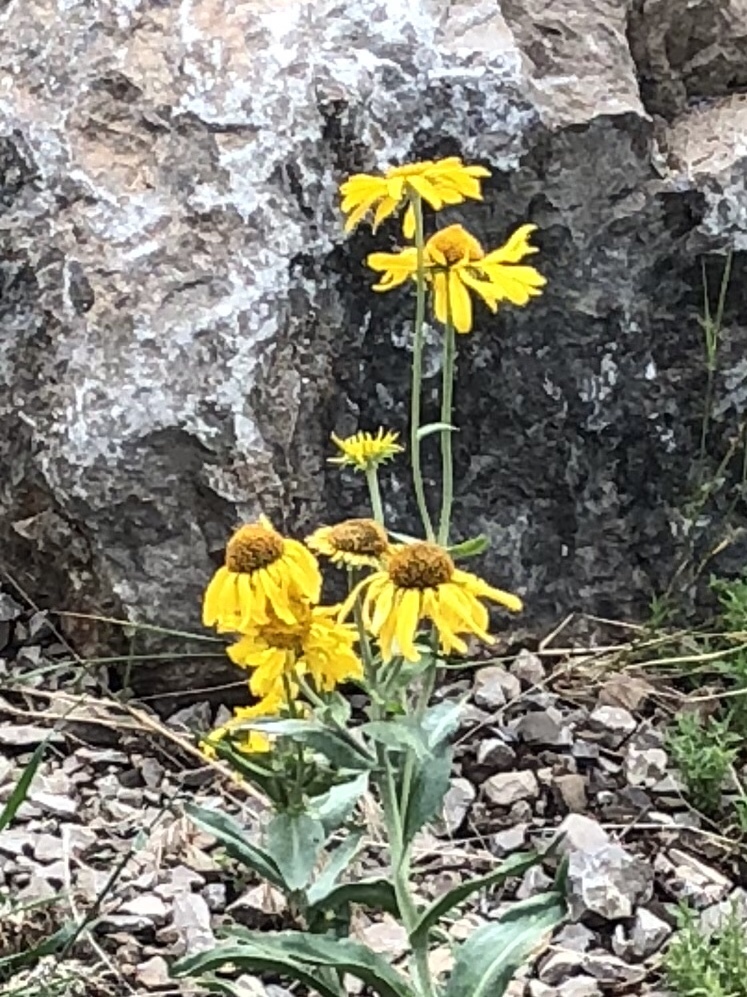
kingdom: Plantae
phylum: Tracheophyta
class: Magnoliopsida
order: Asterales
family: Asteraceae
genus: Hymenoxys
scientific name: Hymenoxys hoopesii
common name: Orange-sneezeweed
